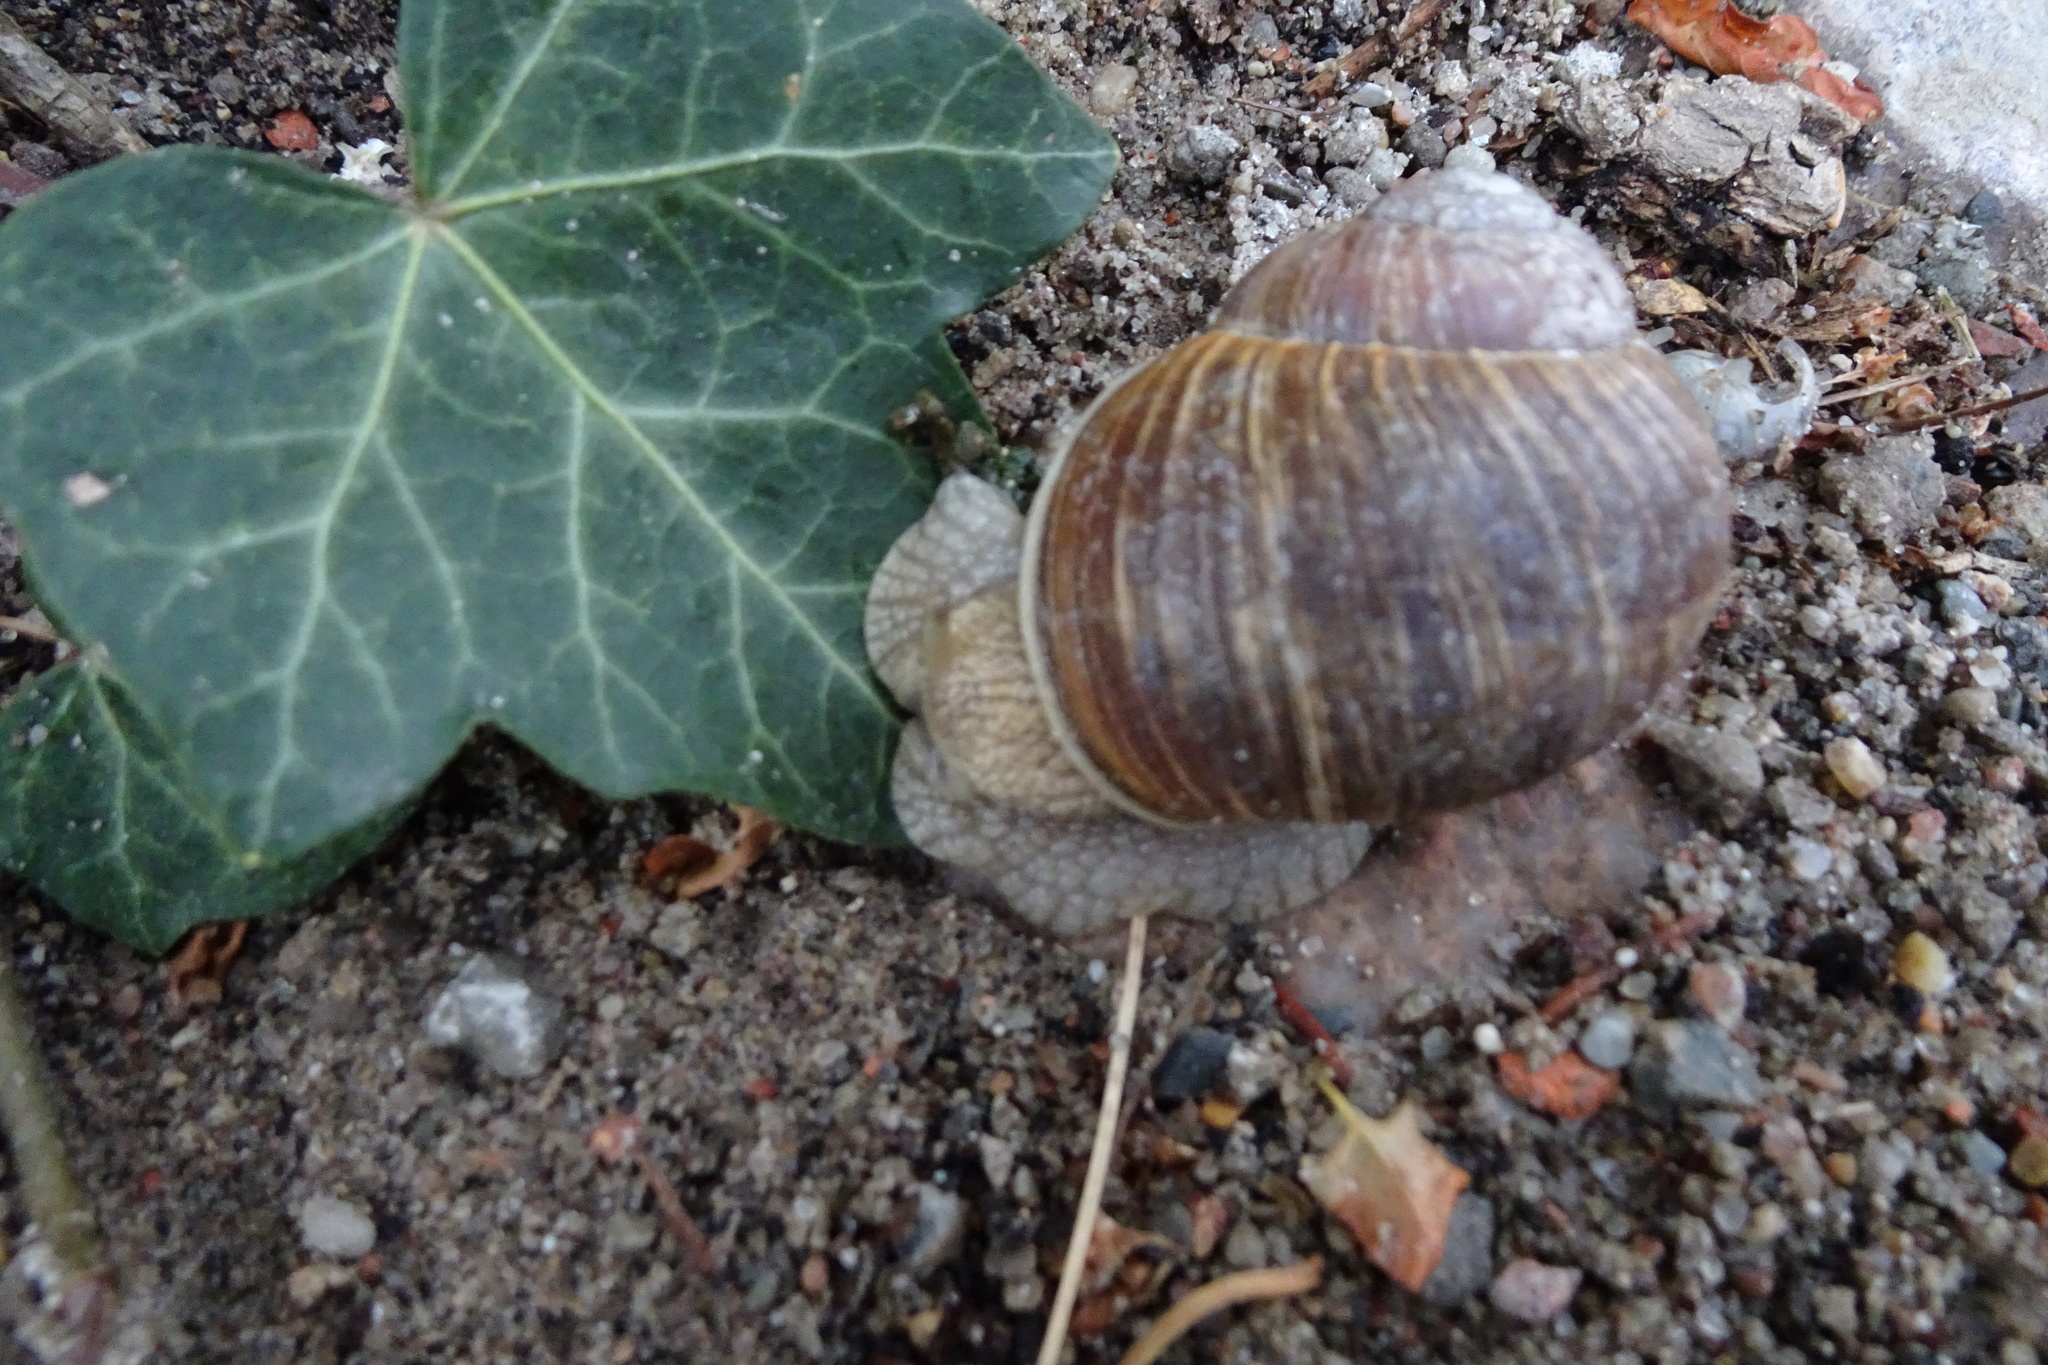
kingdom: Animalia
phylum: Mollusca
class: Gastropoda
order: Stylommatophora
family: Helicidae
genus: Helix
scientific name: Helix pomatia
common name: Roman snail
